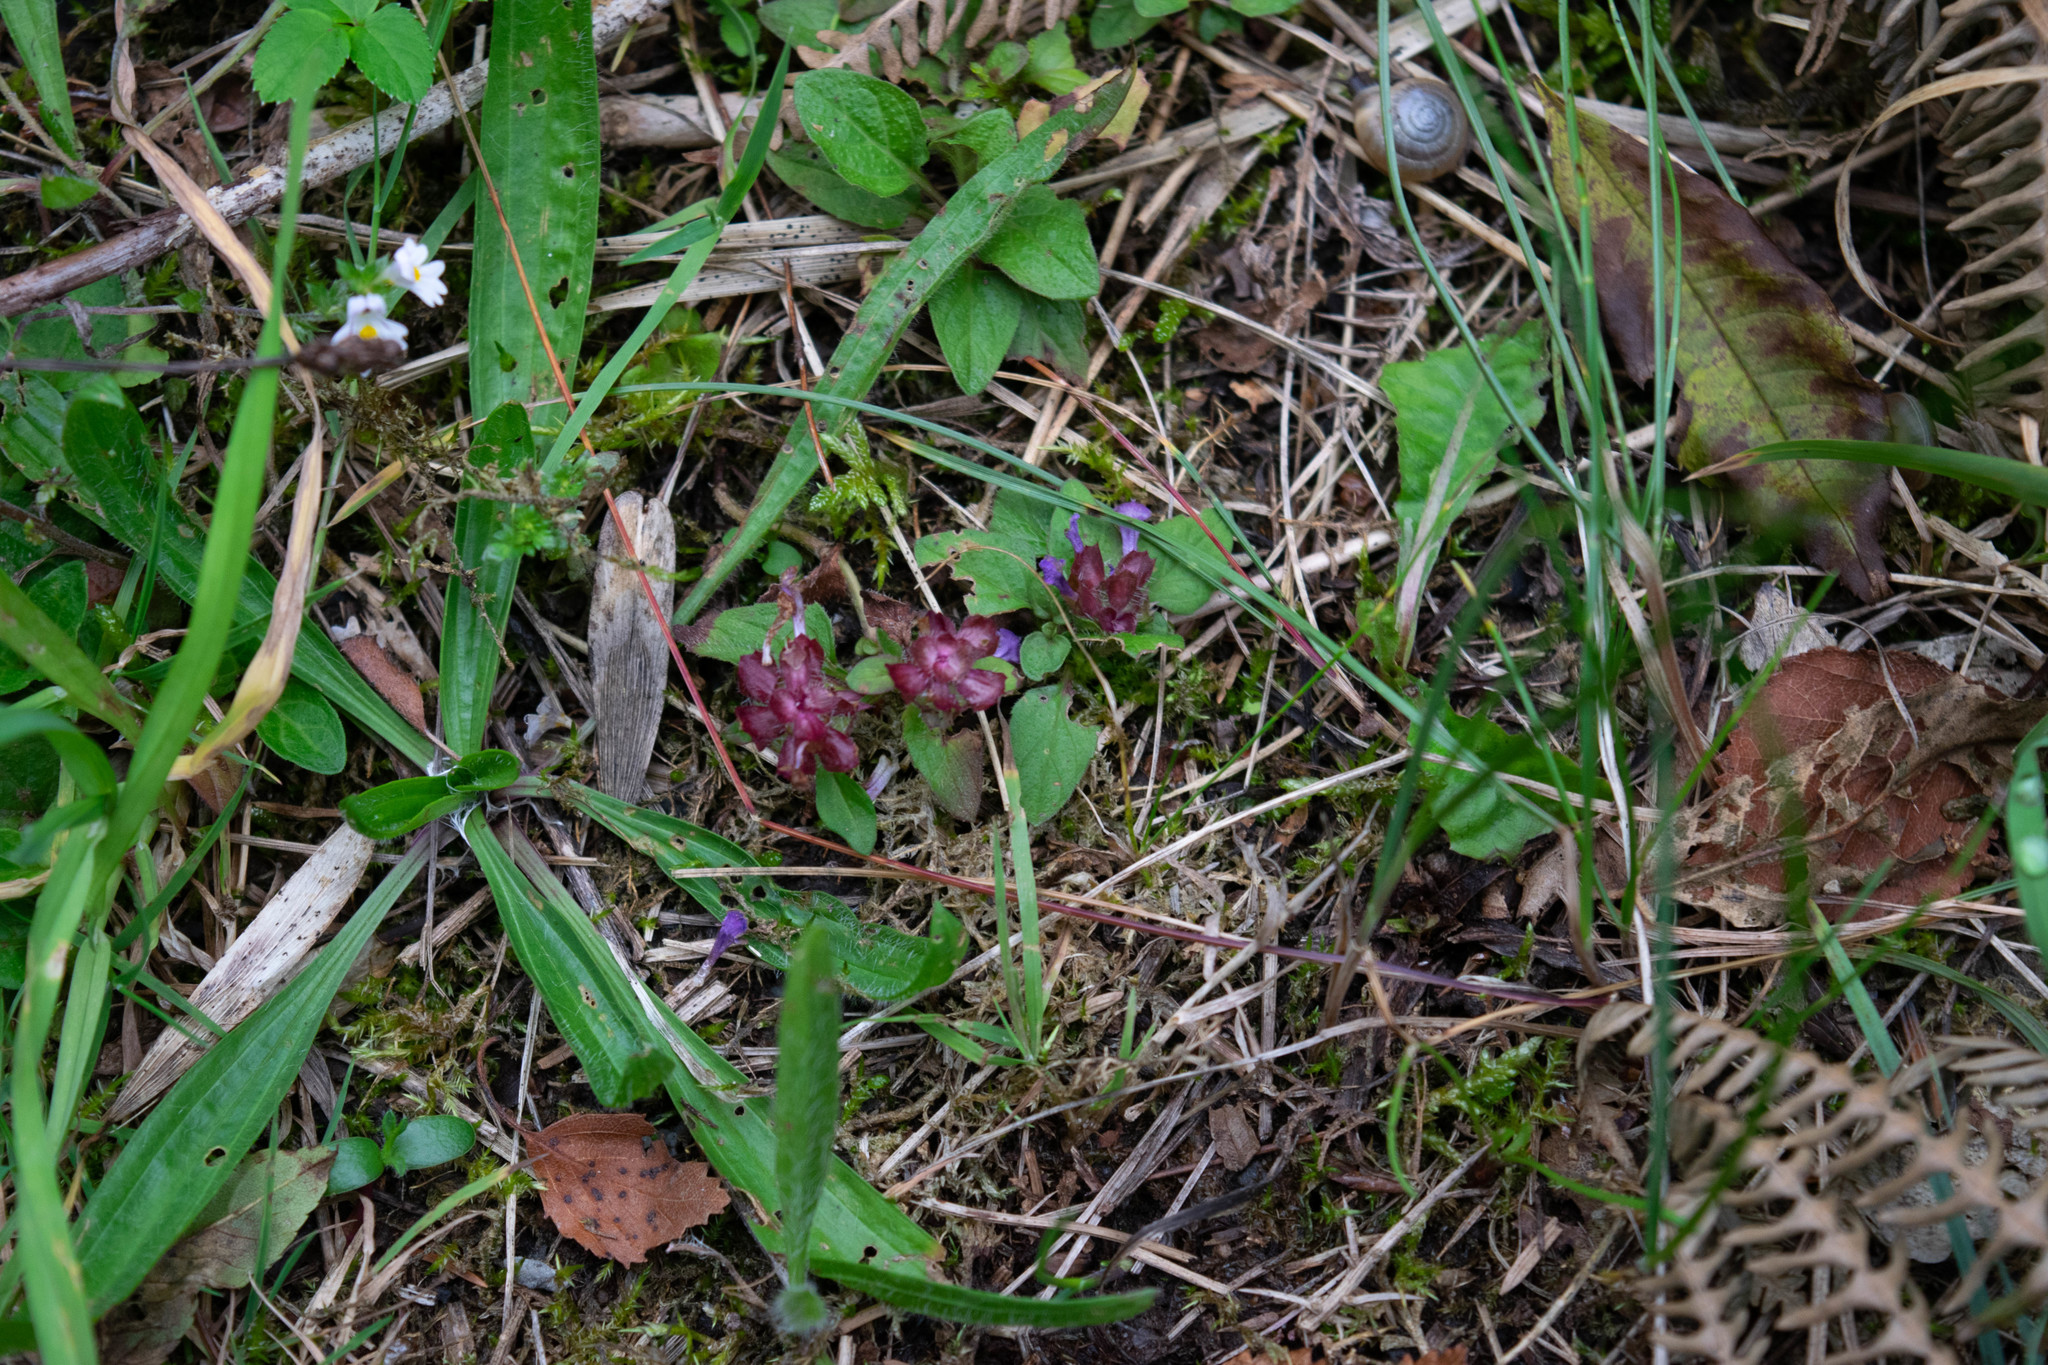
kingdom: Plantae
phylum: Tracheophyta
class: Magnoliopsida
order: Lamiales
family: Lamiaceae
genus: Prunella
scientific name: Prunella vulgaris
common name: Heal-all
